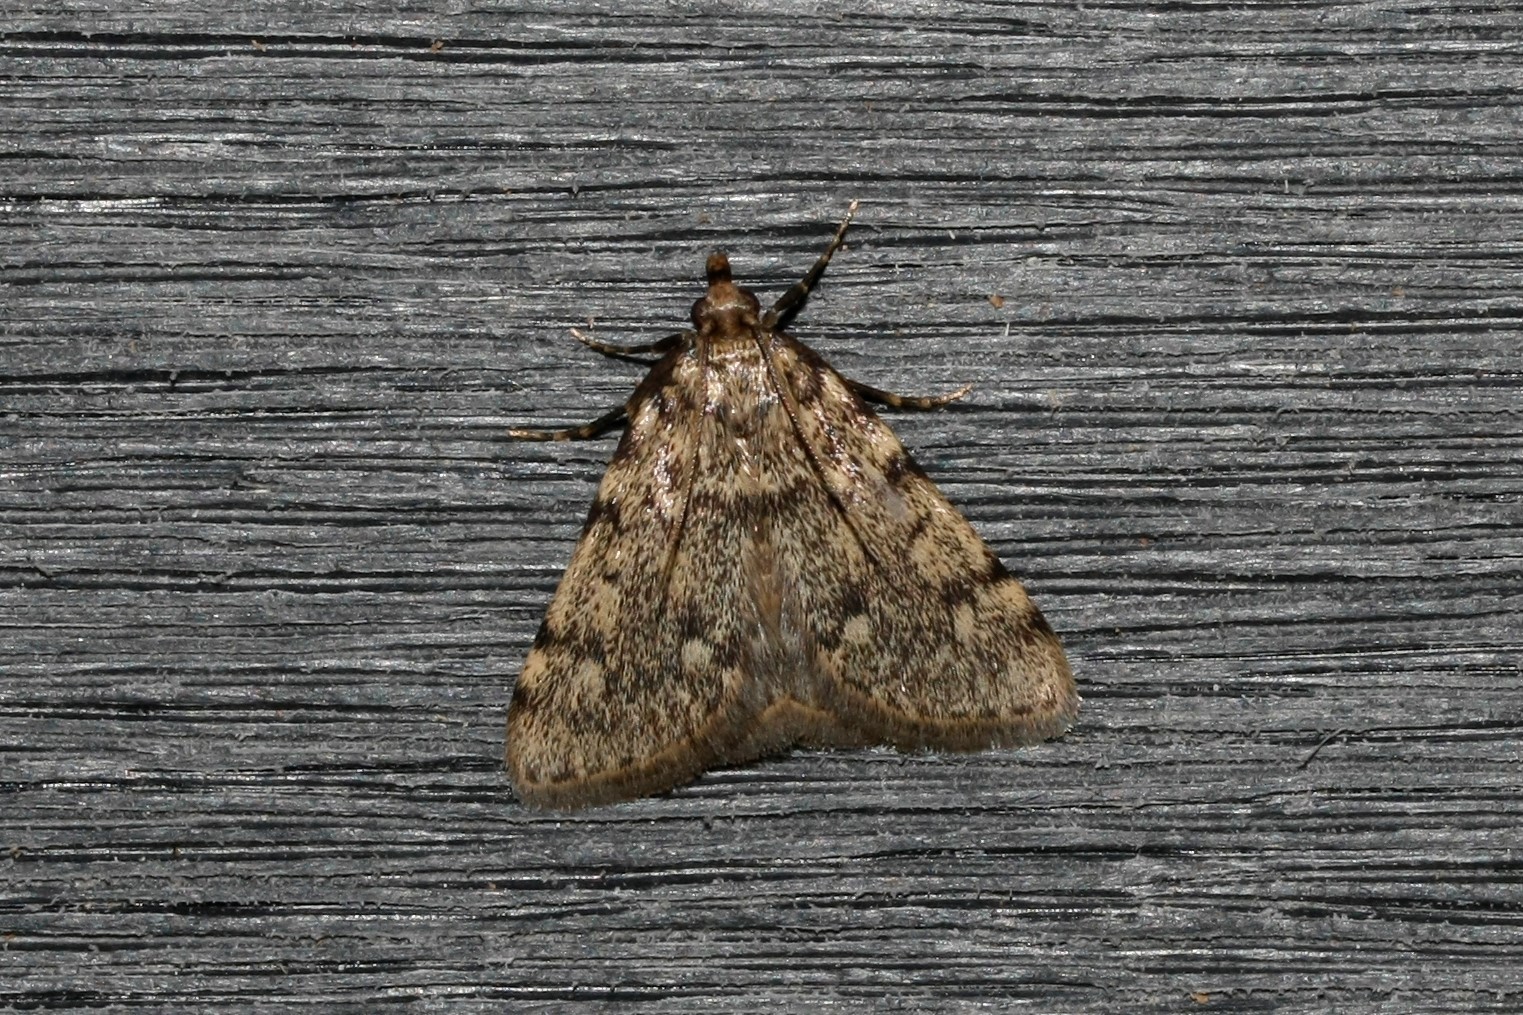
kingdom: Animalia
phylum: Arthropoda
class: Insecta
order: Lepidoptera
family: Pyralidae
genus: Aglossa
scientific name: Aglossa pinguinalis
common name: Large tabby
